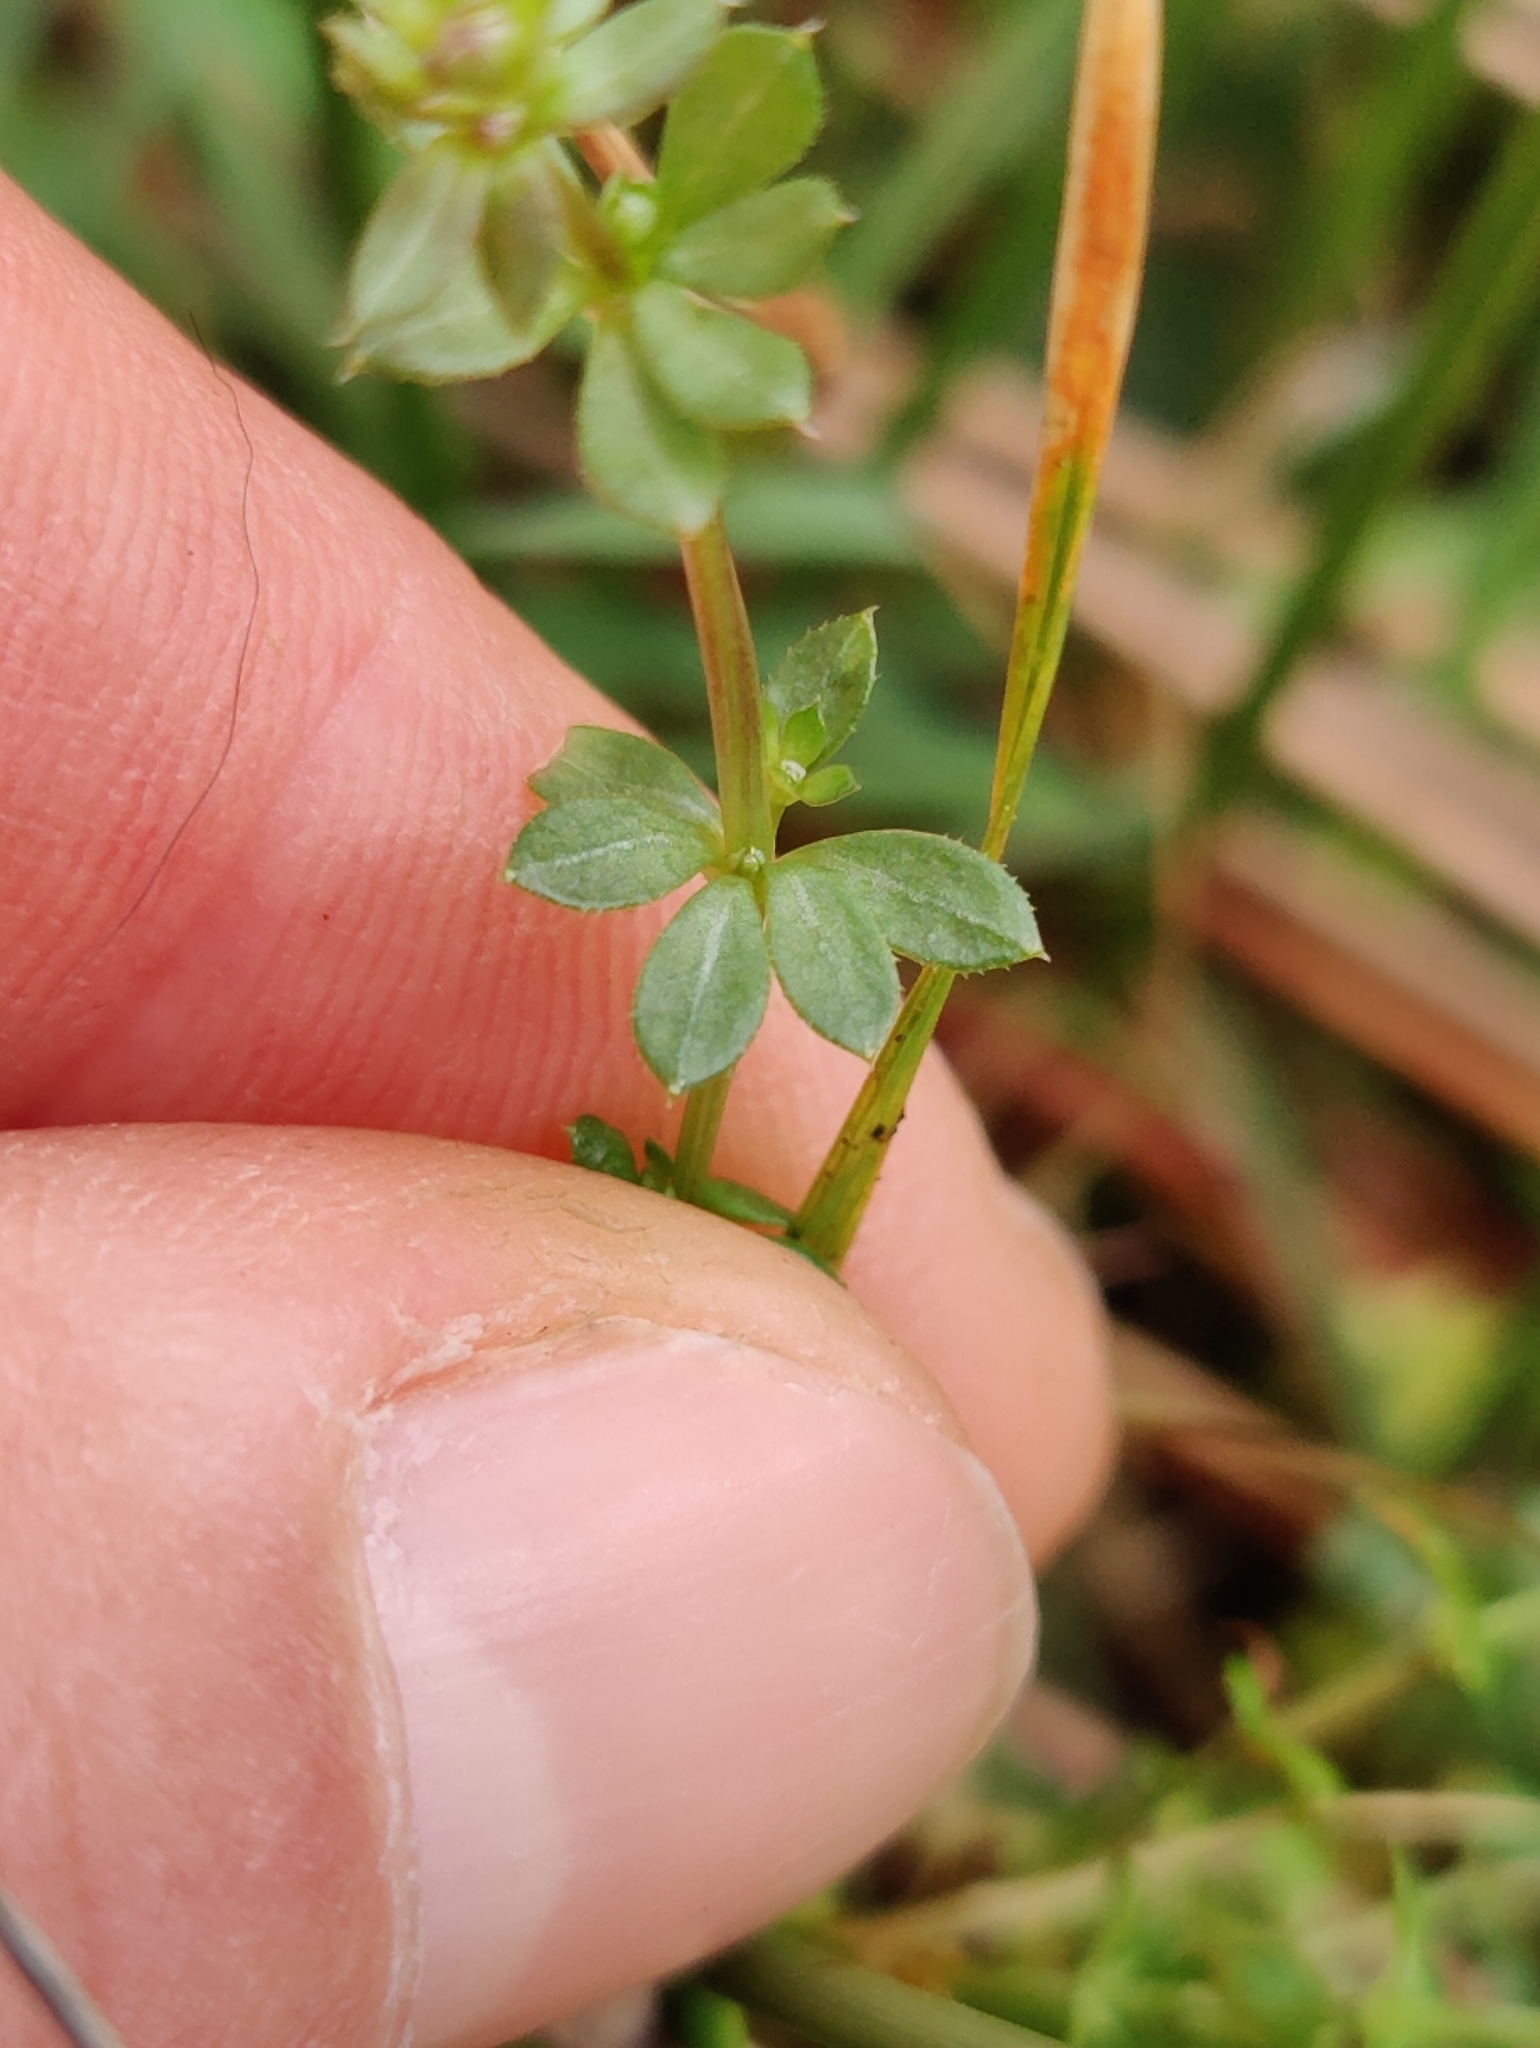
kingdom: Plantae
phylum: Tracheophyta
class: Magnoliopsida
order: Gentianales
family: Rubiaceae
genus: Galium
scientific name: Galium saxatile
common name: Heath bedstraw
